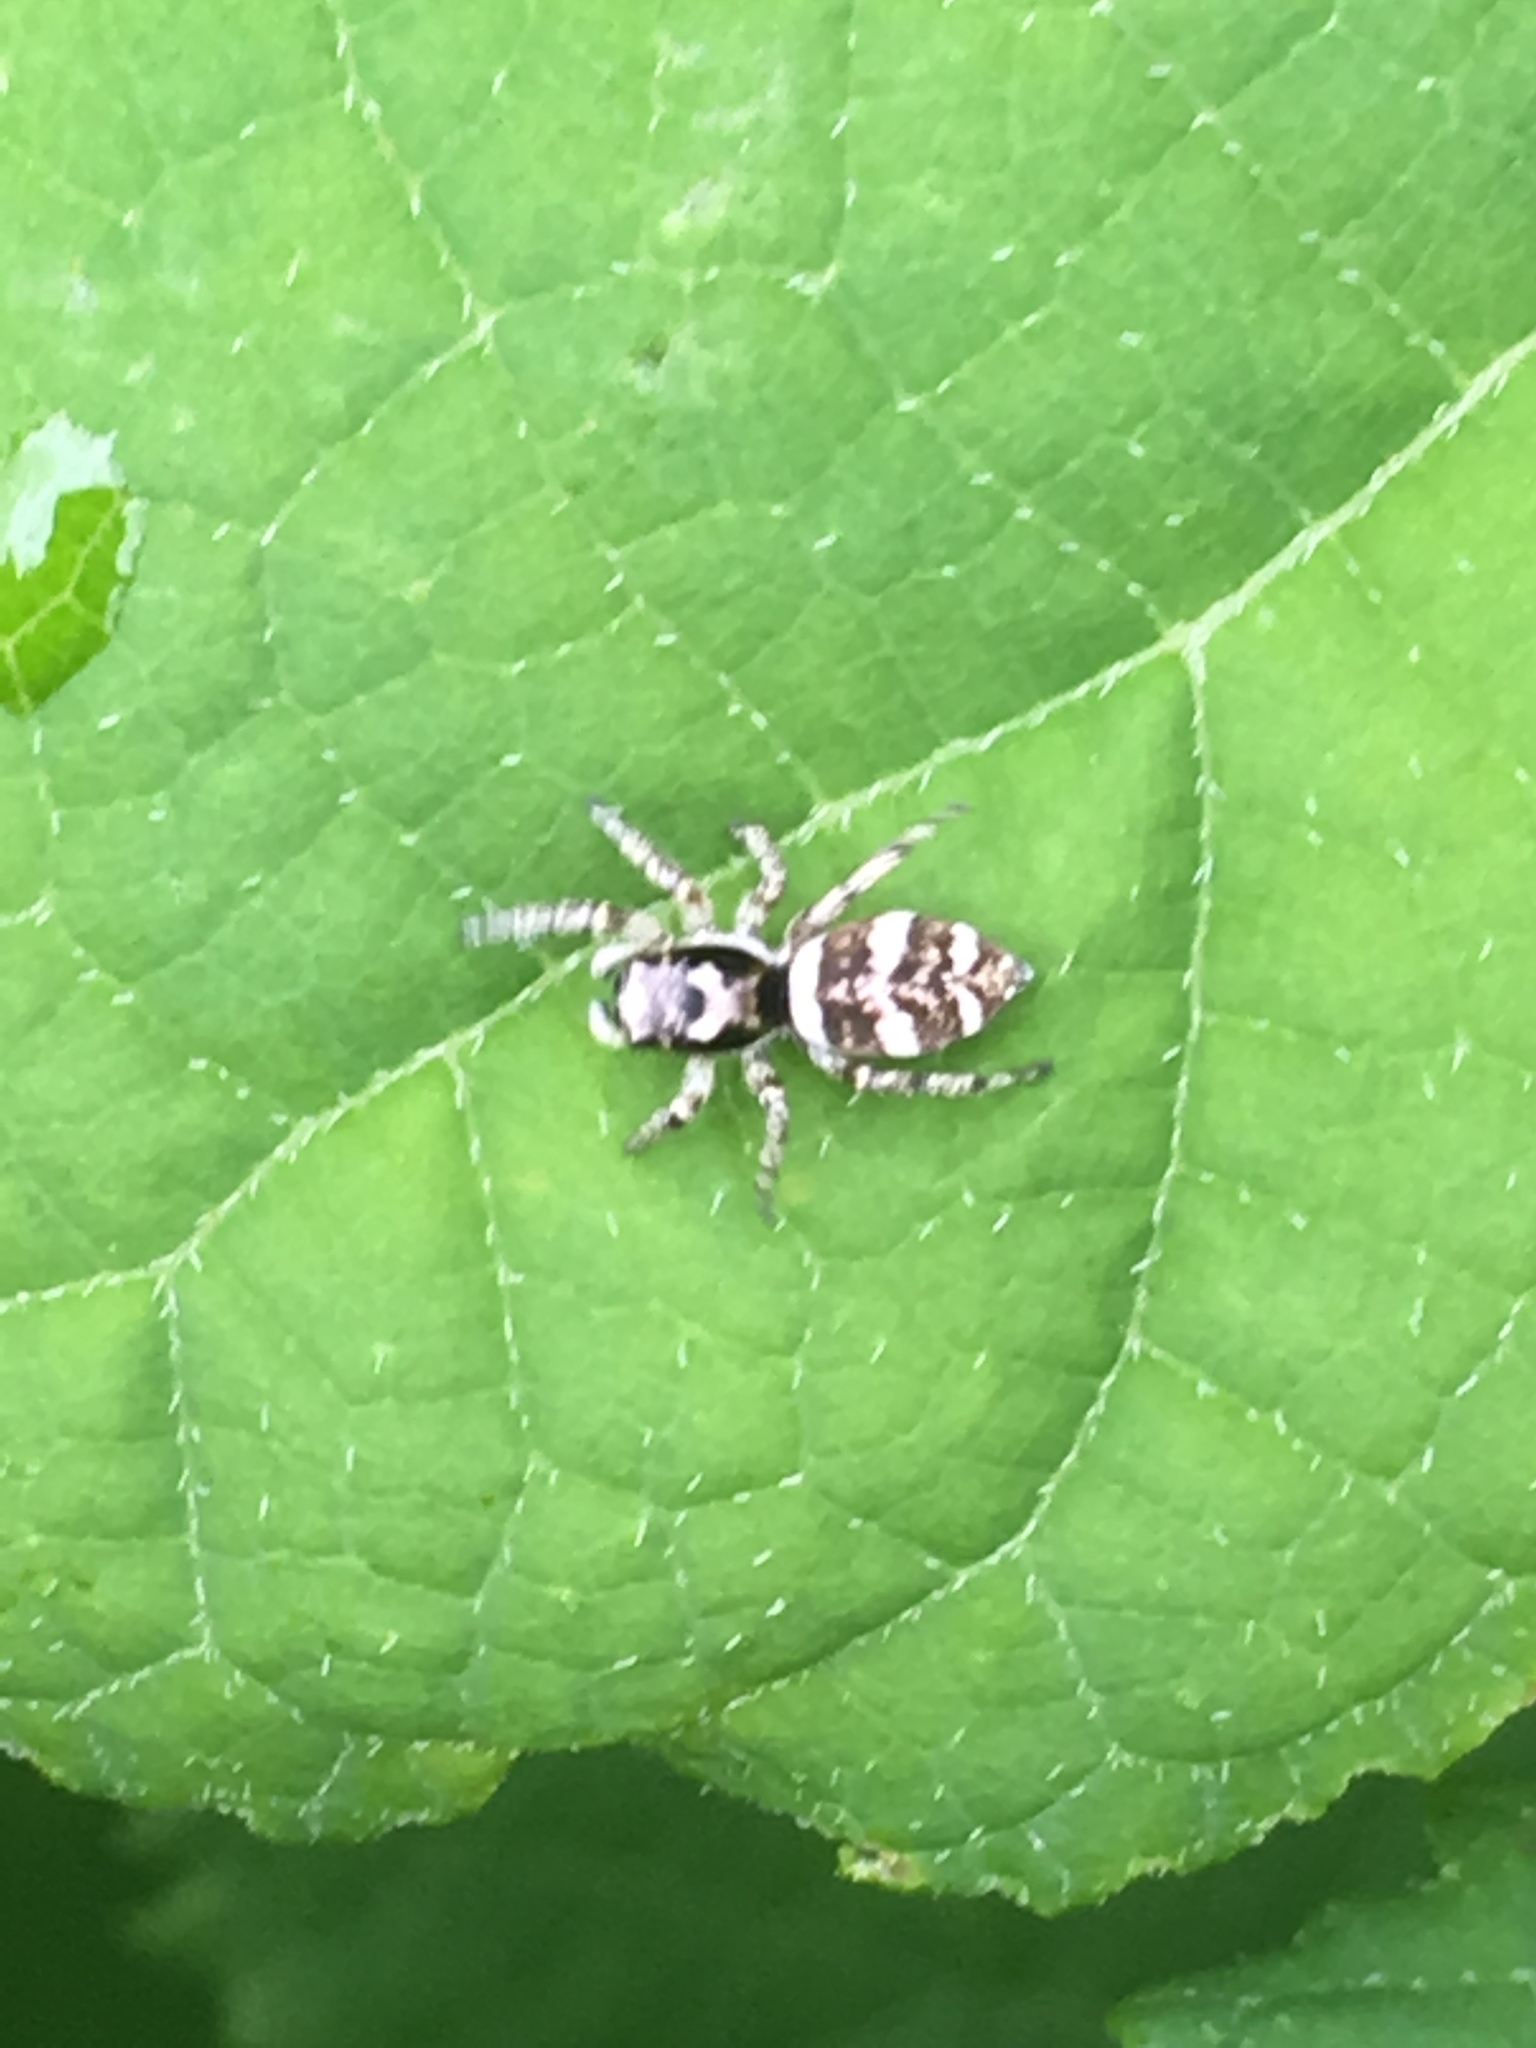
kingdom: Animalia
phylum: Arthropoda
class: Arachnida
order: Araneae
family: Salticidae
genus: Salticus
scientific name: Salticus scenicus
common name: Zebra jumper
